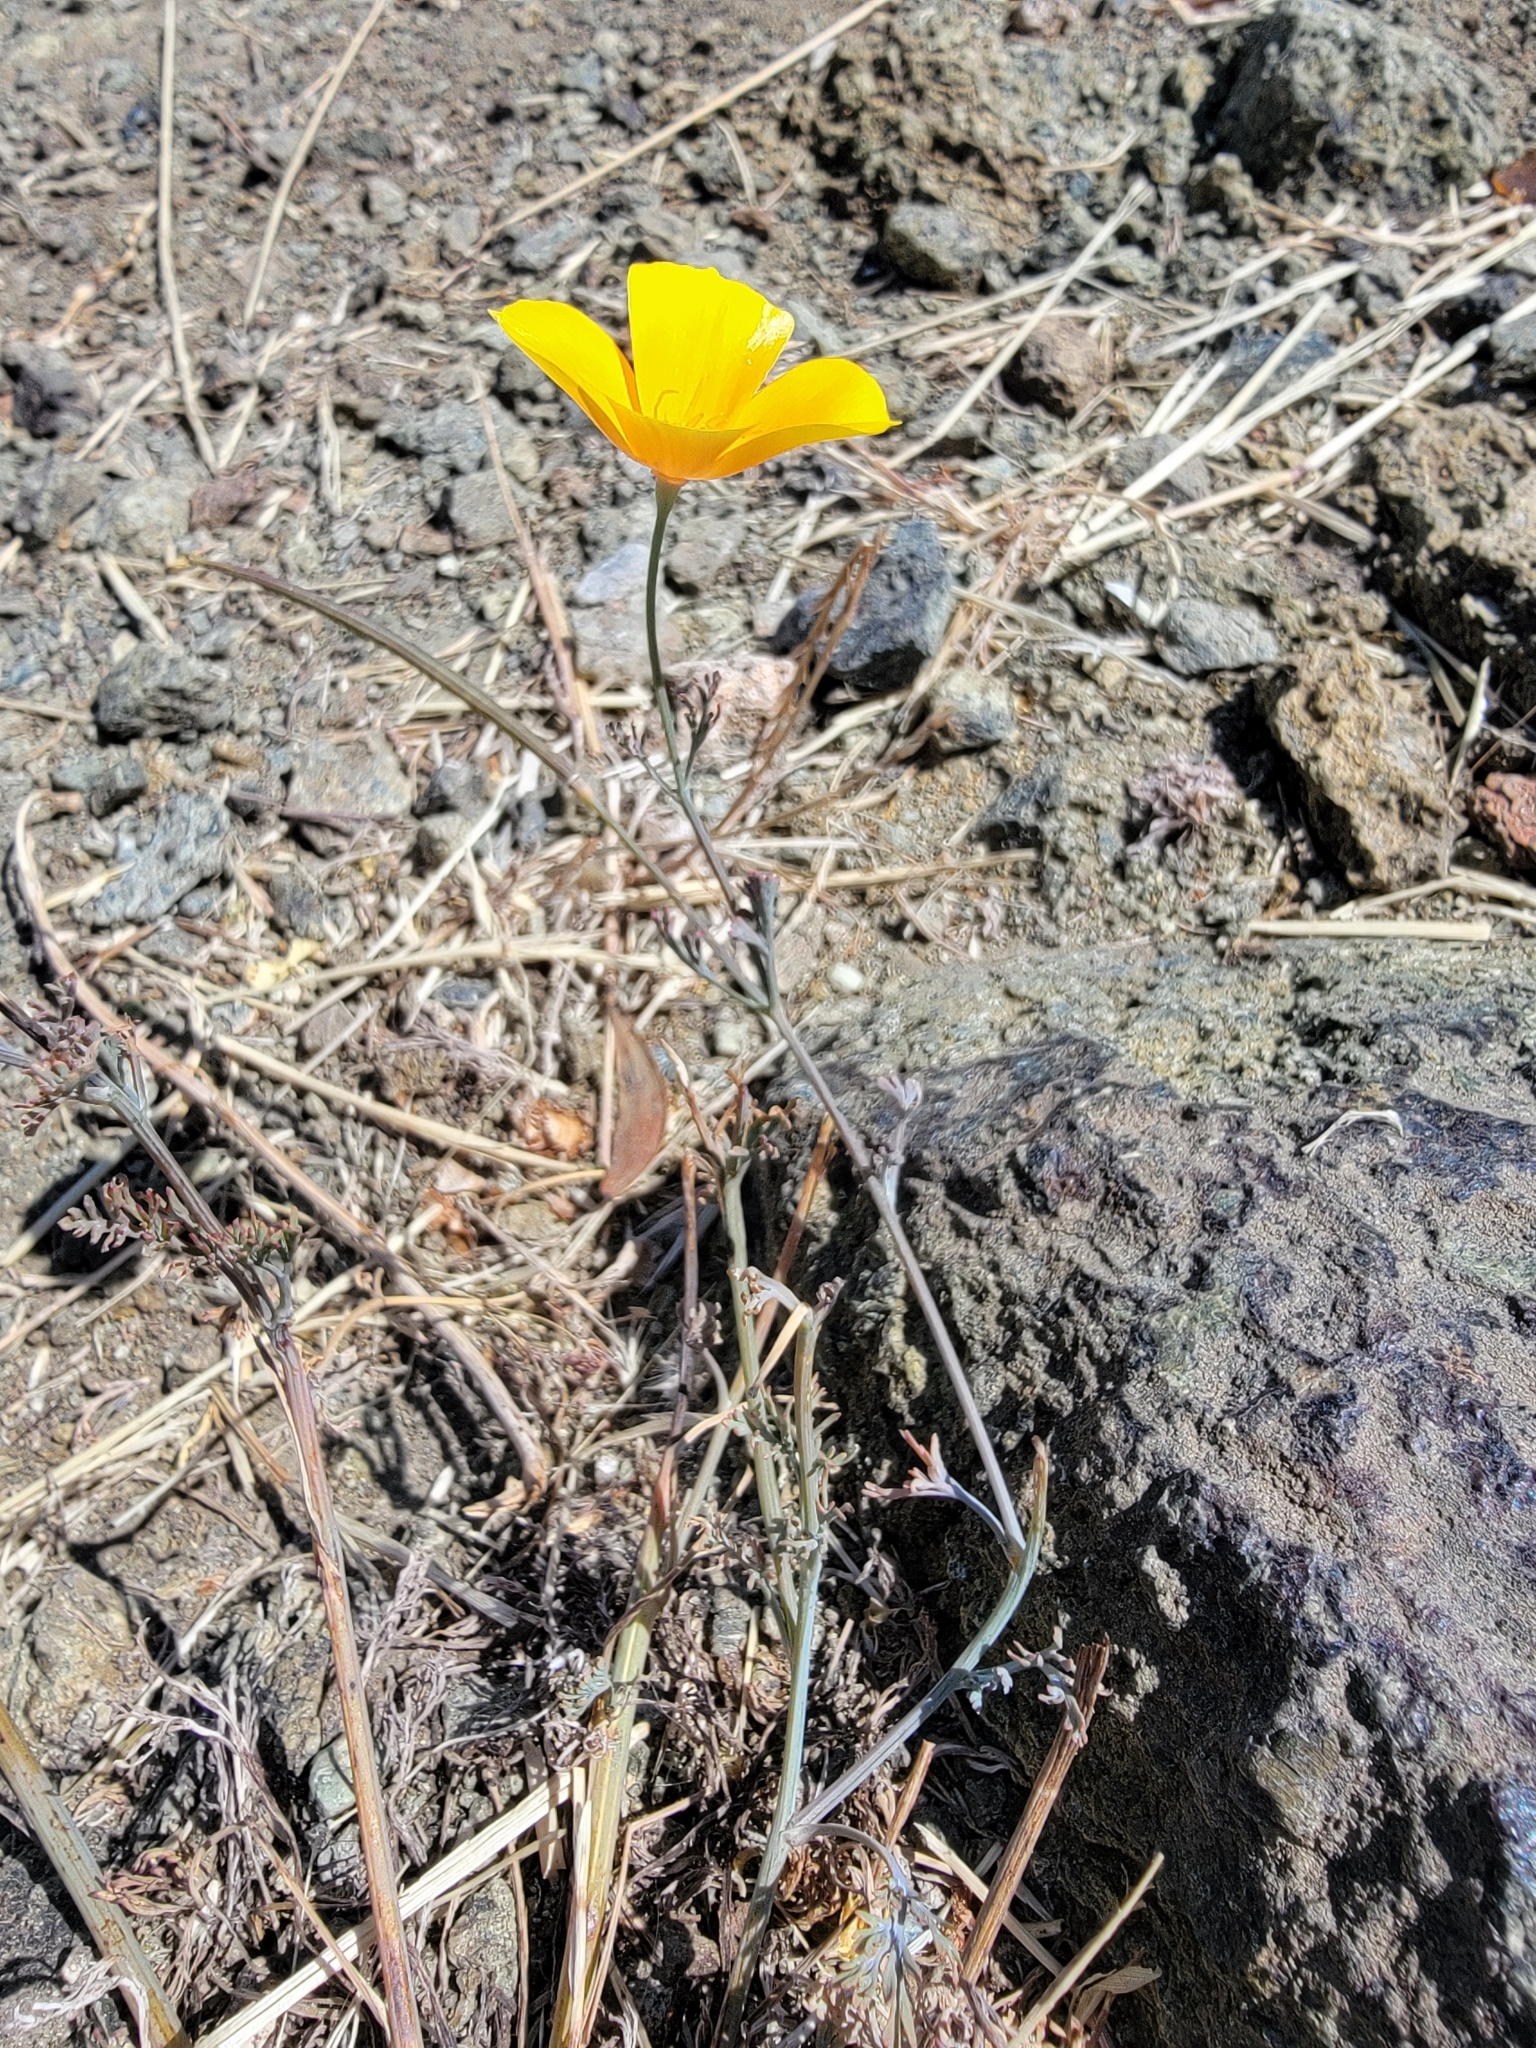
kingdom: Plantae
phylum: Tracheophyta
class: Magnoliopsida
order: Ranunculales
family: Papaveraceae
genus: Eschscholzia
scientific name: Eschscholzia californica
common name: California poppy
